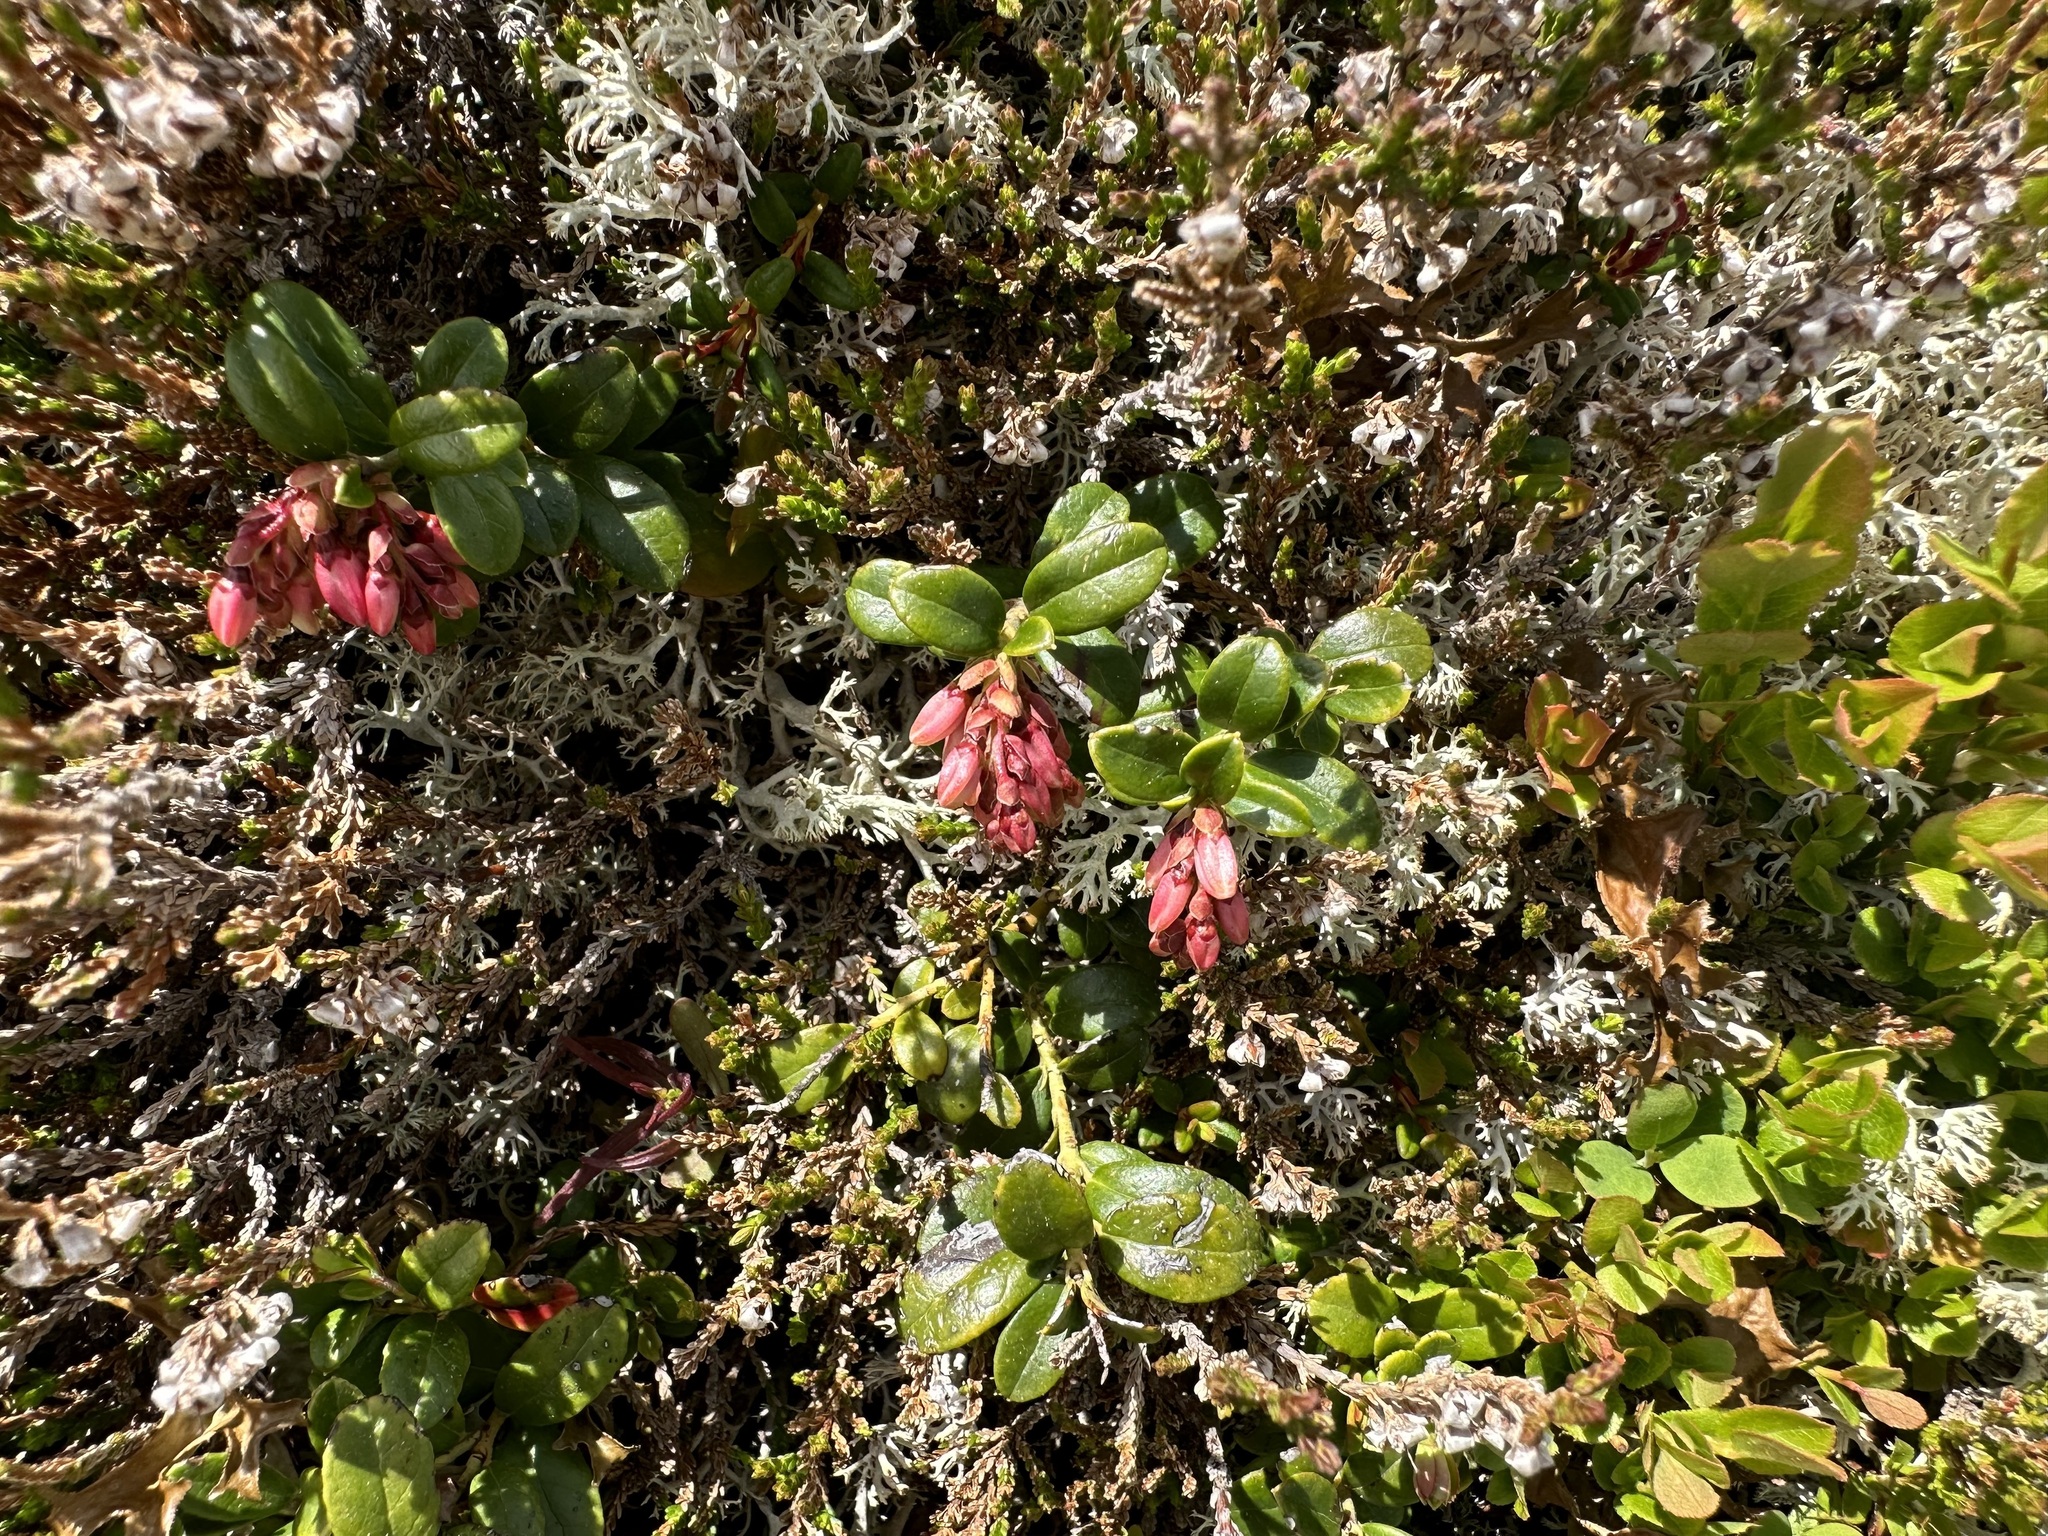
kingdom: Plantae
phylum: Tracheophyta
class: Magnoliopsida
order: Ericales
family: Ericaceae
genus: Vaccinium
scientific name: Vaccinium vitis-idaea
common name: Cowberry
